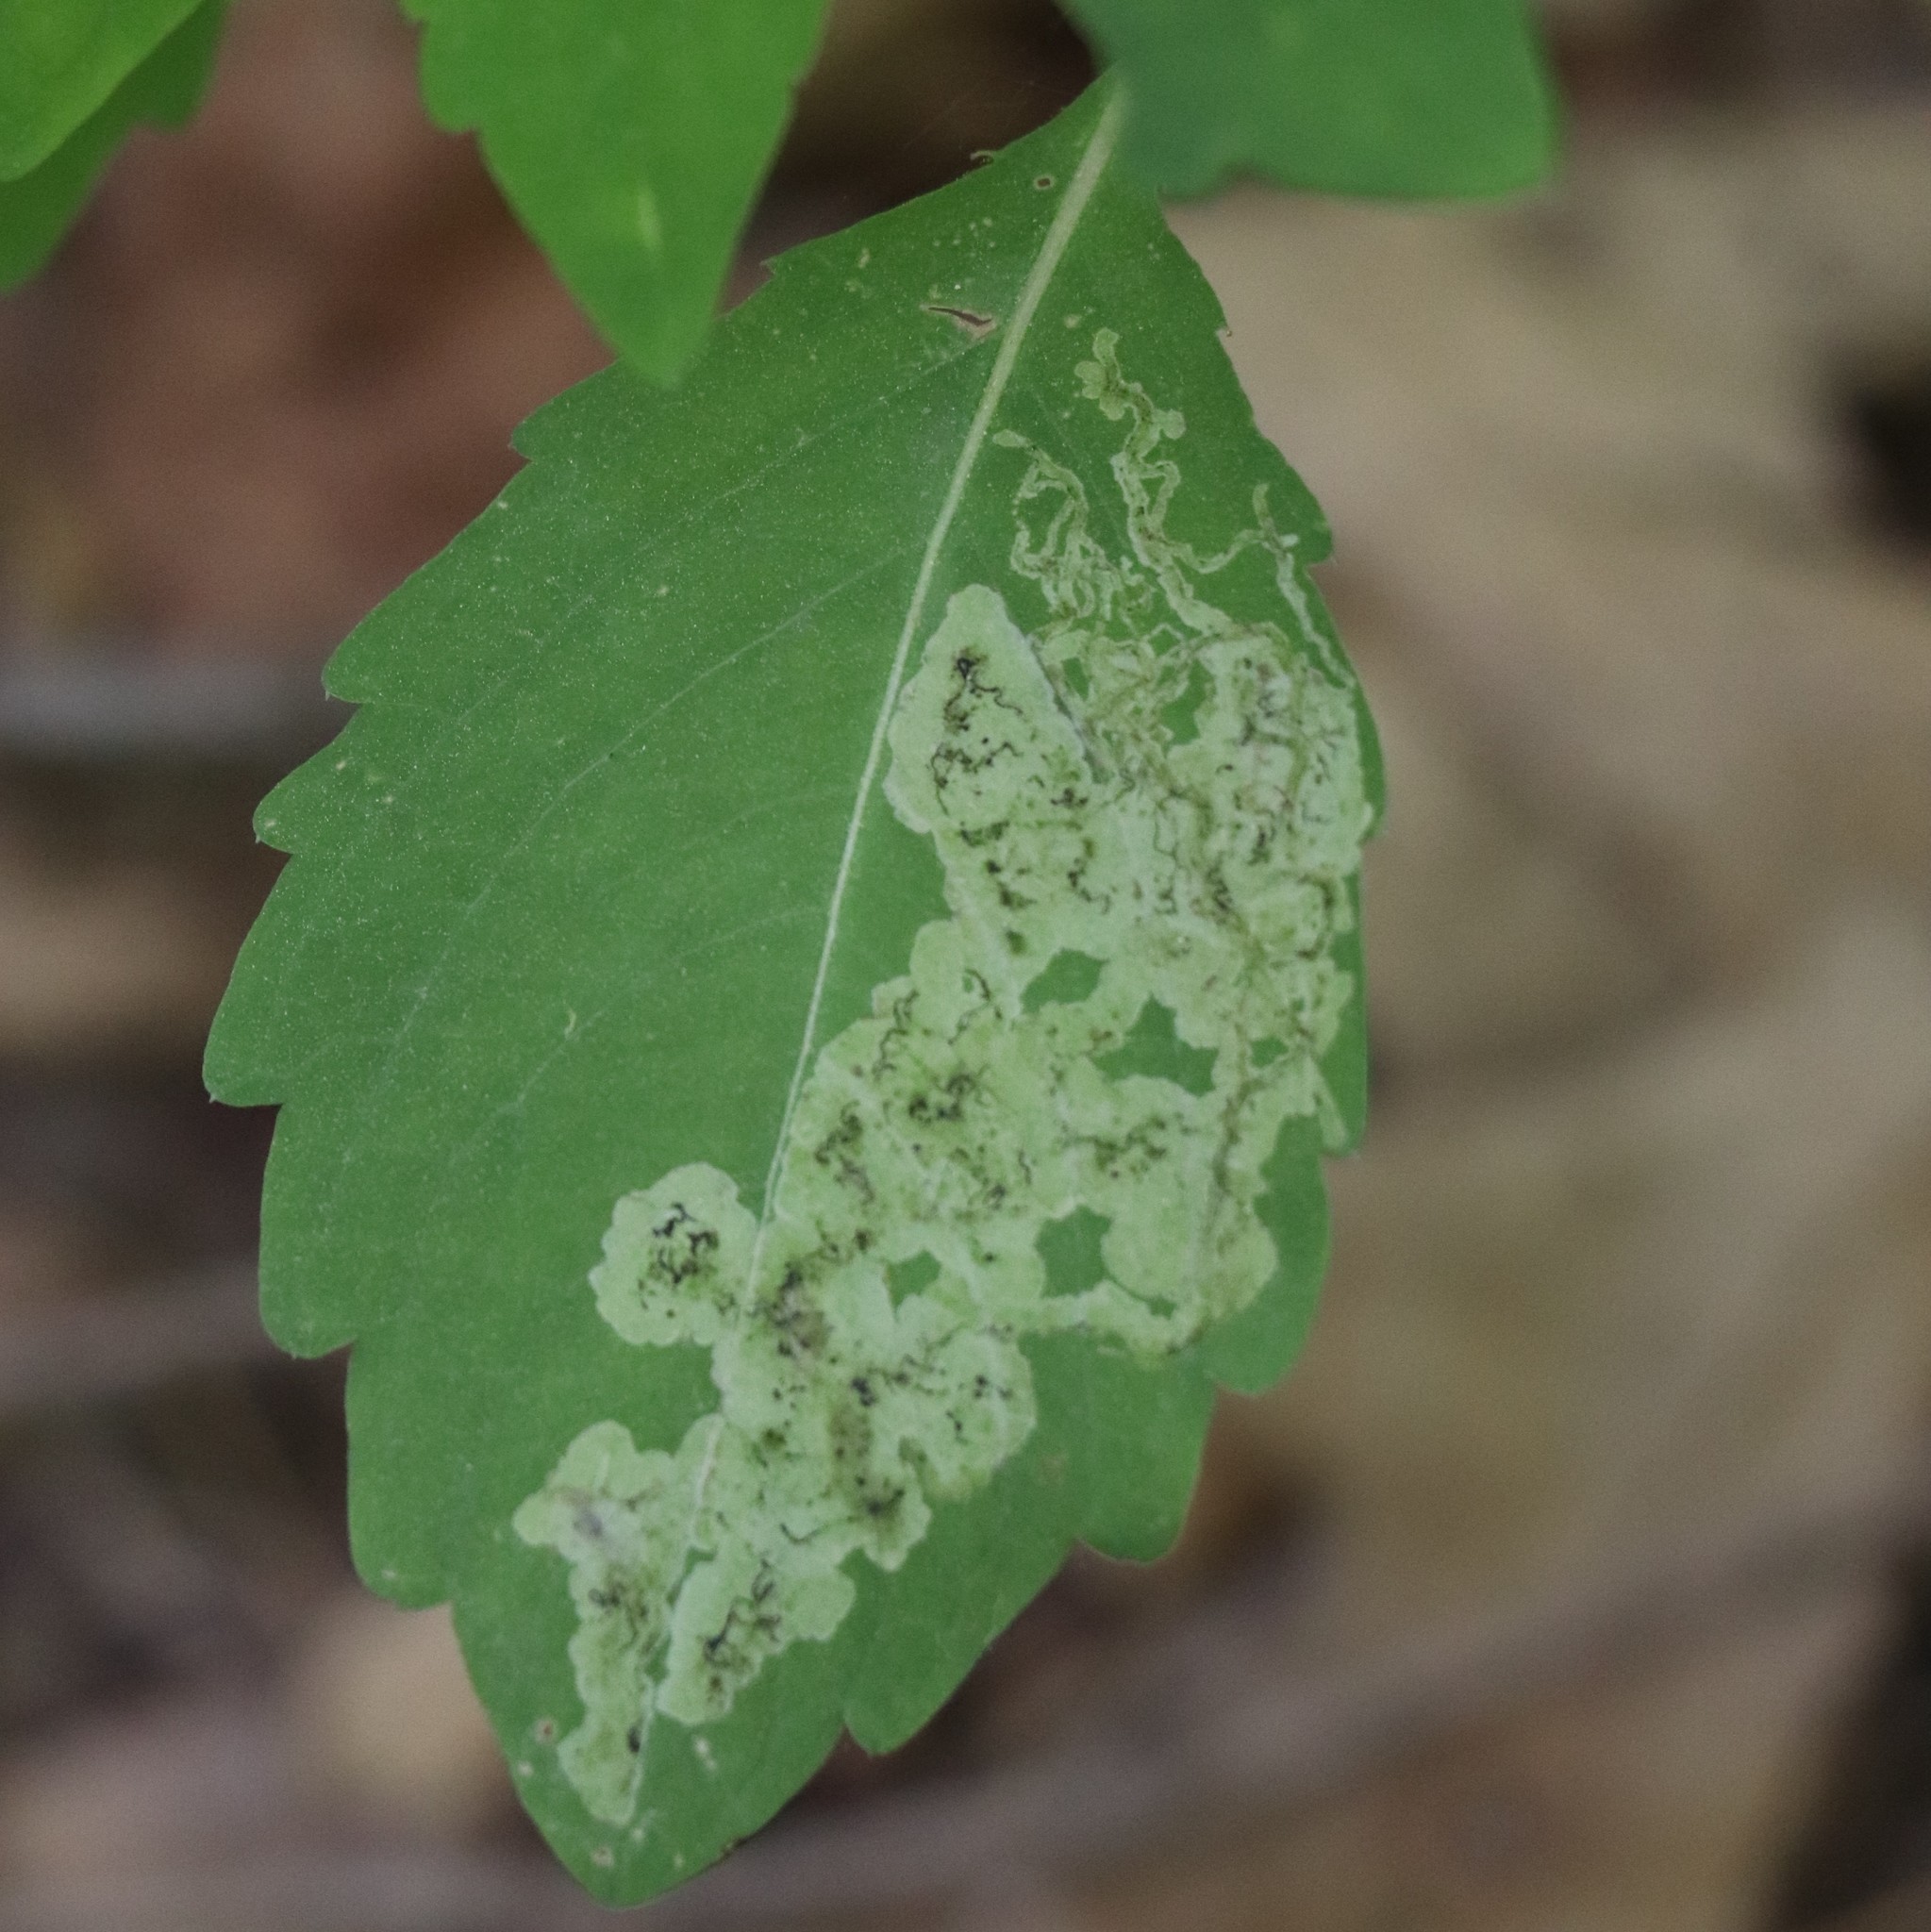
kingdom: Animalia
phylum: Arthropoda
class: Insecta
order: Diptera
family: Agromyzidae
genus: Phytoliriomyza
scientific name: Phytoliriomyza melampyga
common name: Jewelweed leaf-miner fly
